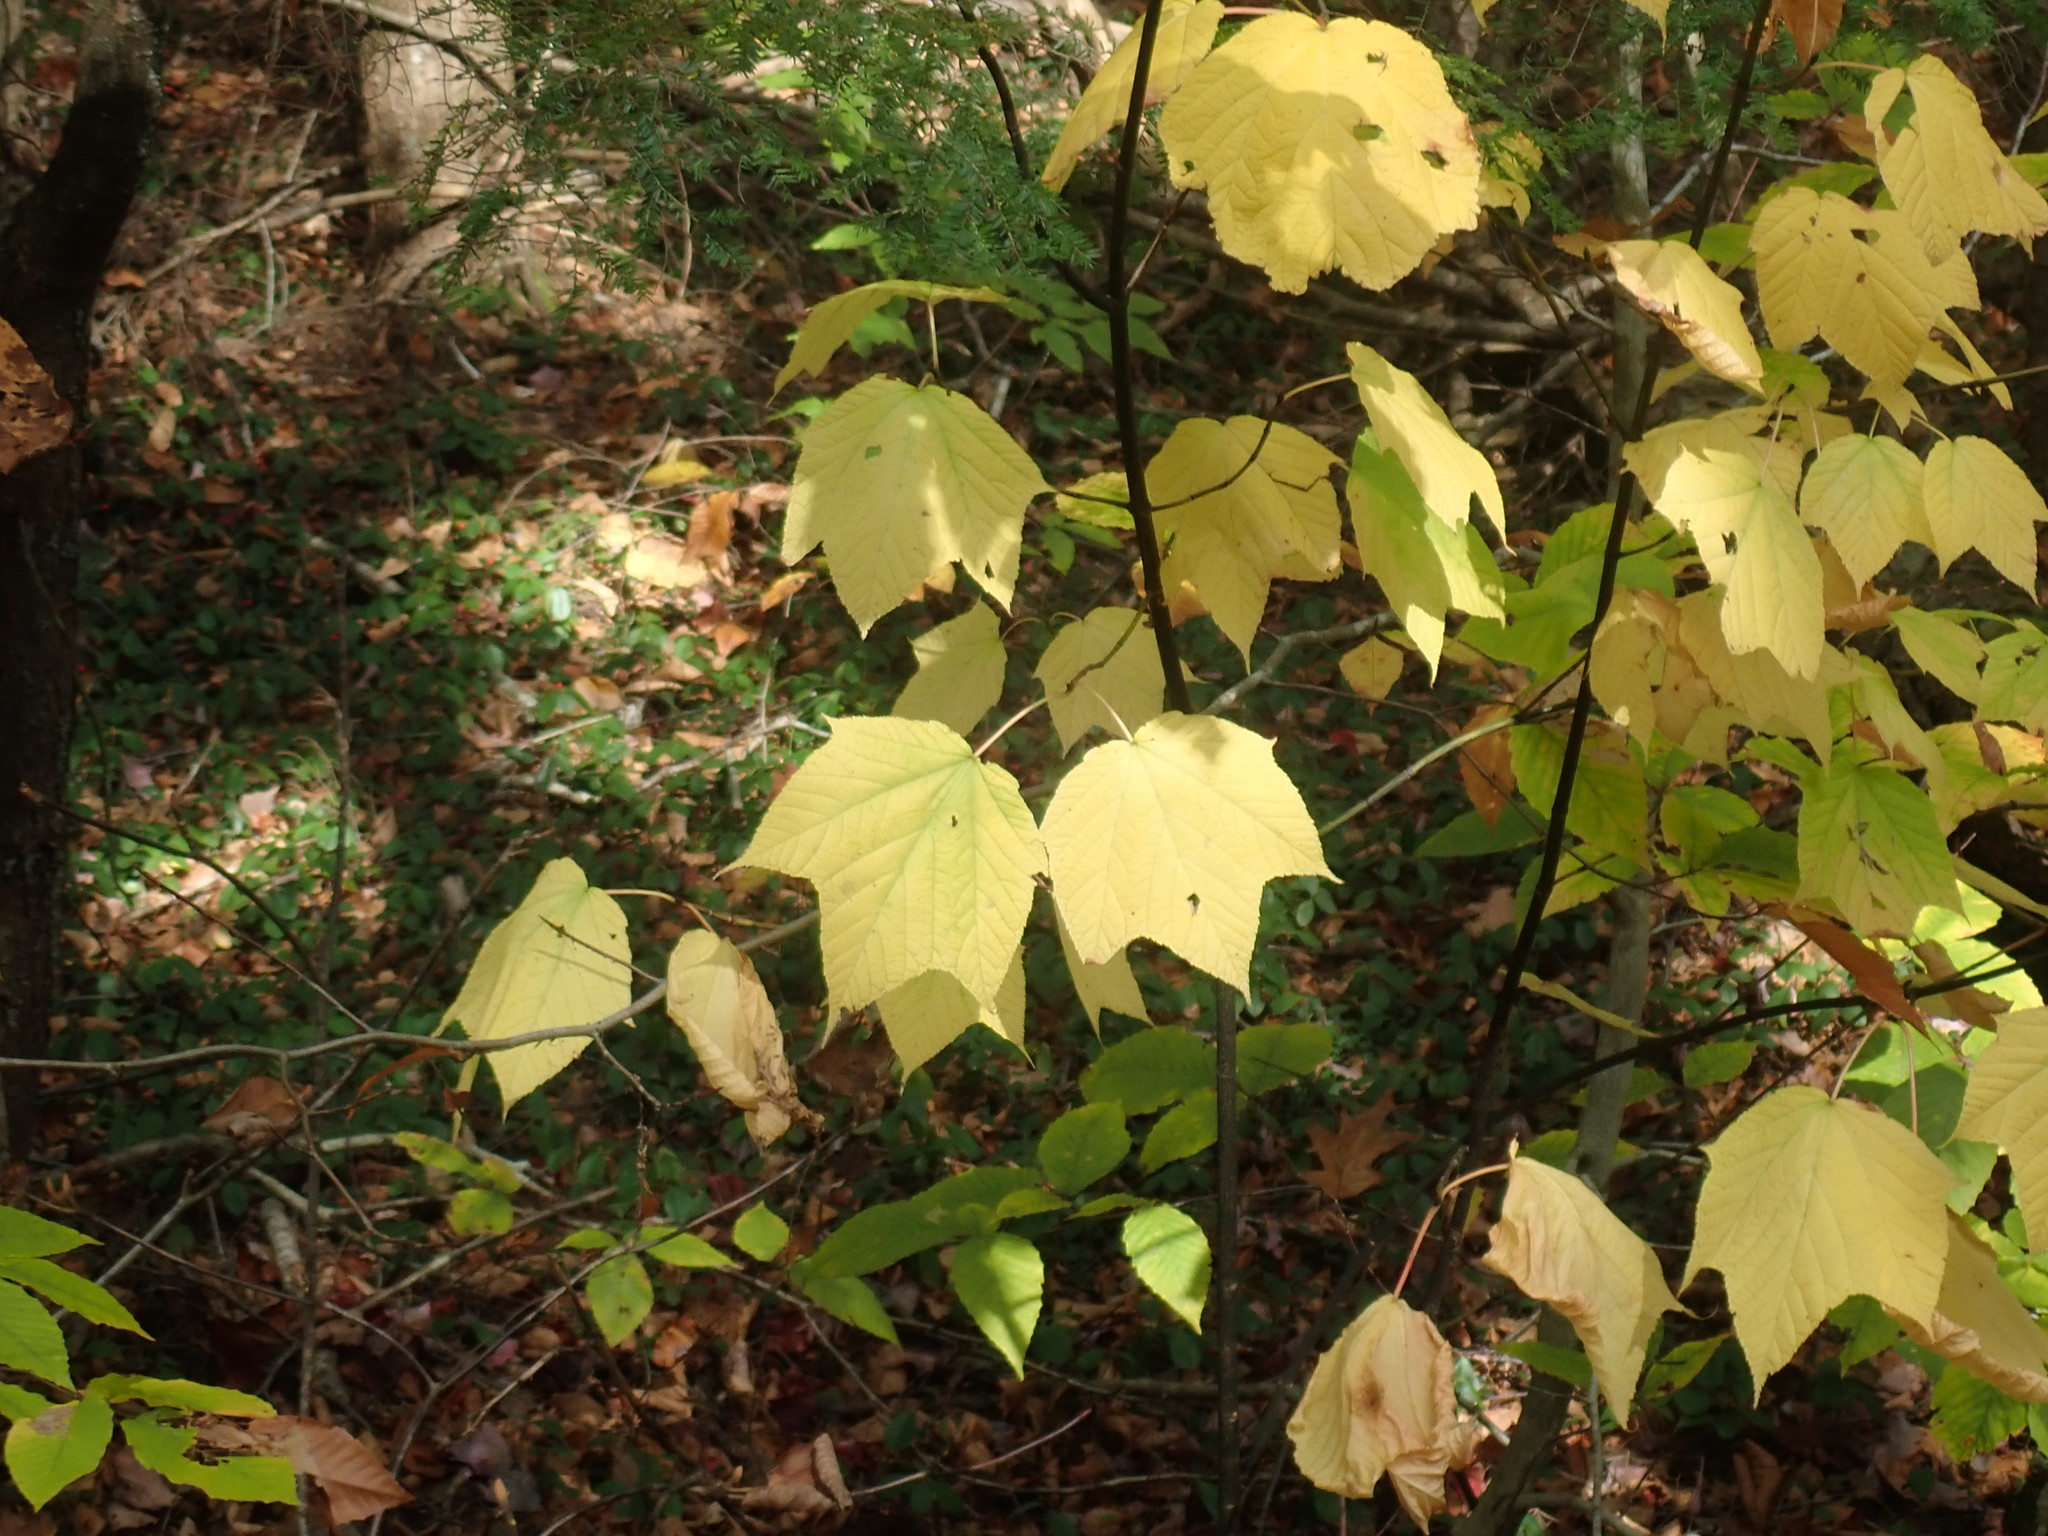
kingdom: Plantae
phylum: Tracheophyta
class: Magnoliopsida
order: Sapindales
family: Sapindaceae
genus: Acer
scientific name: Acer pensylvanicum
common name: Moosewood
